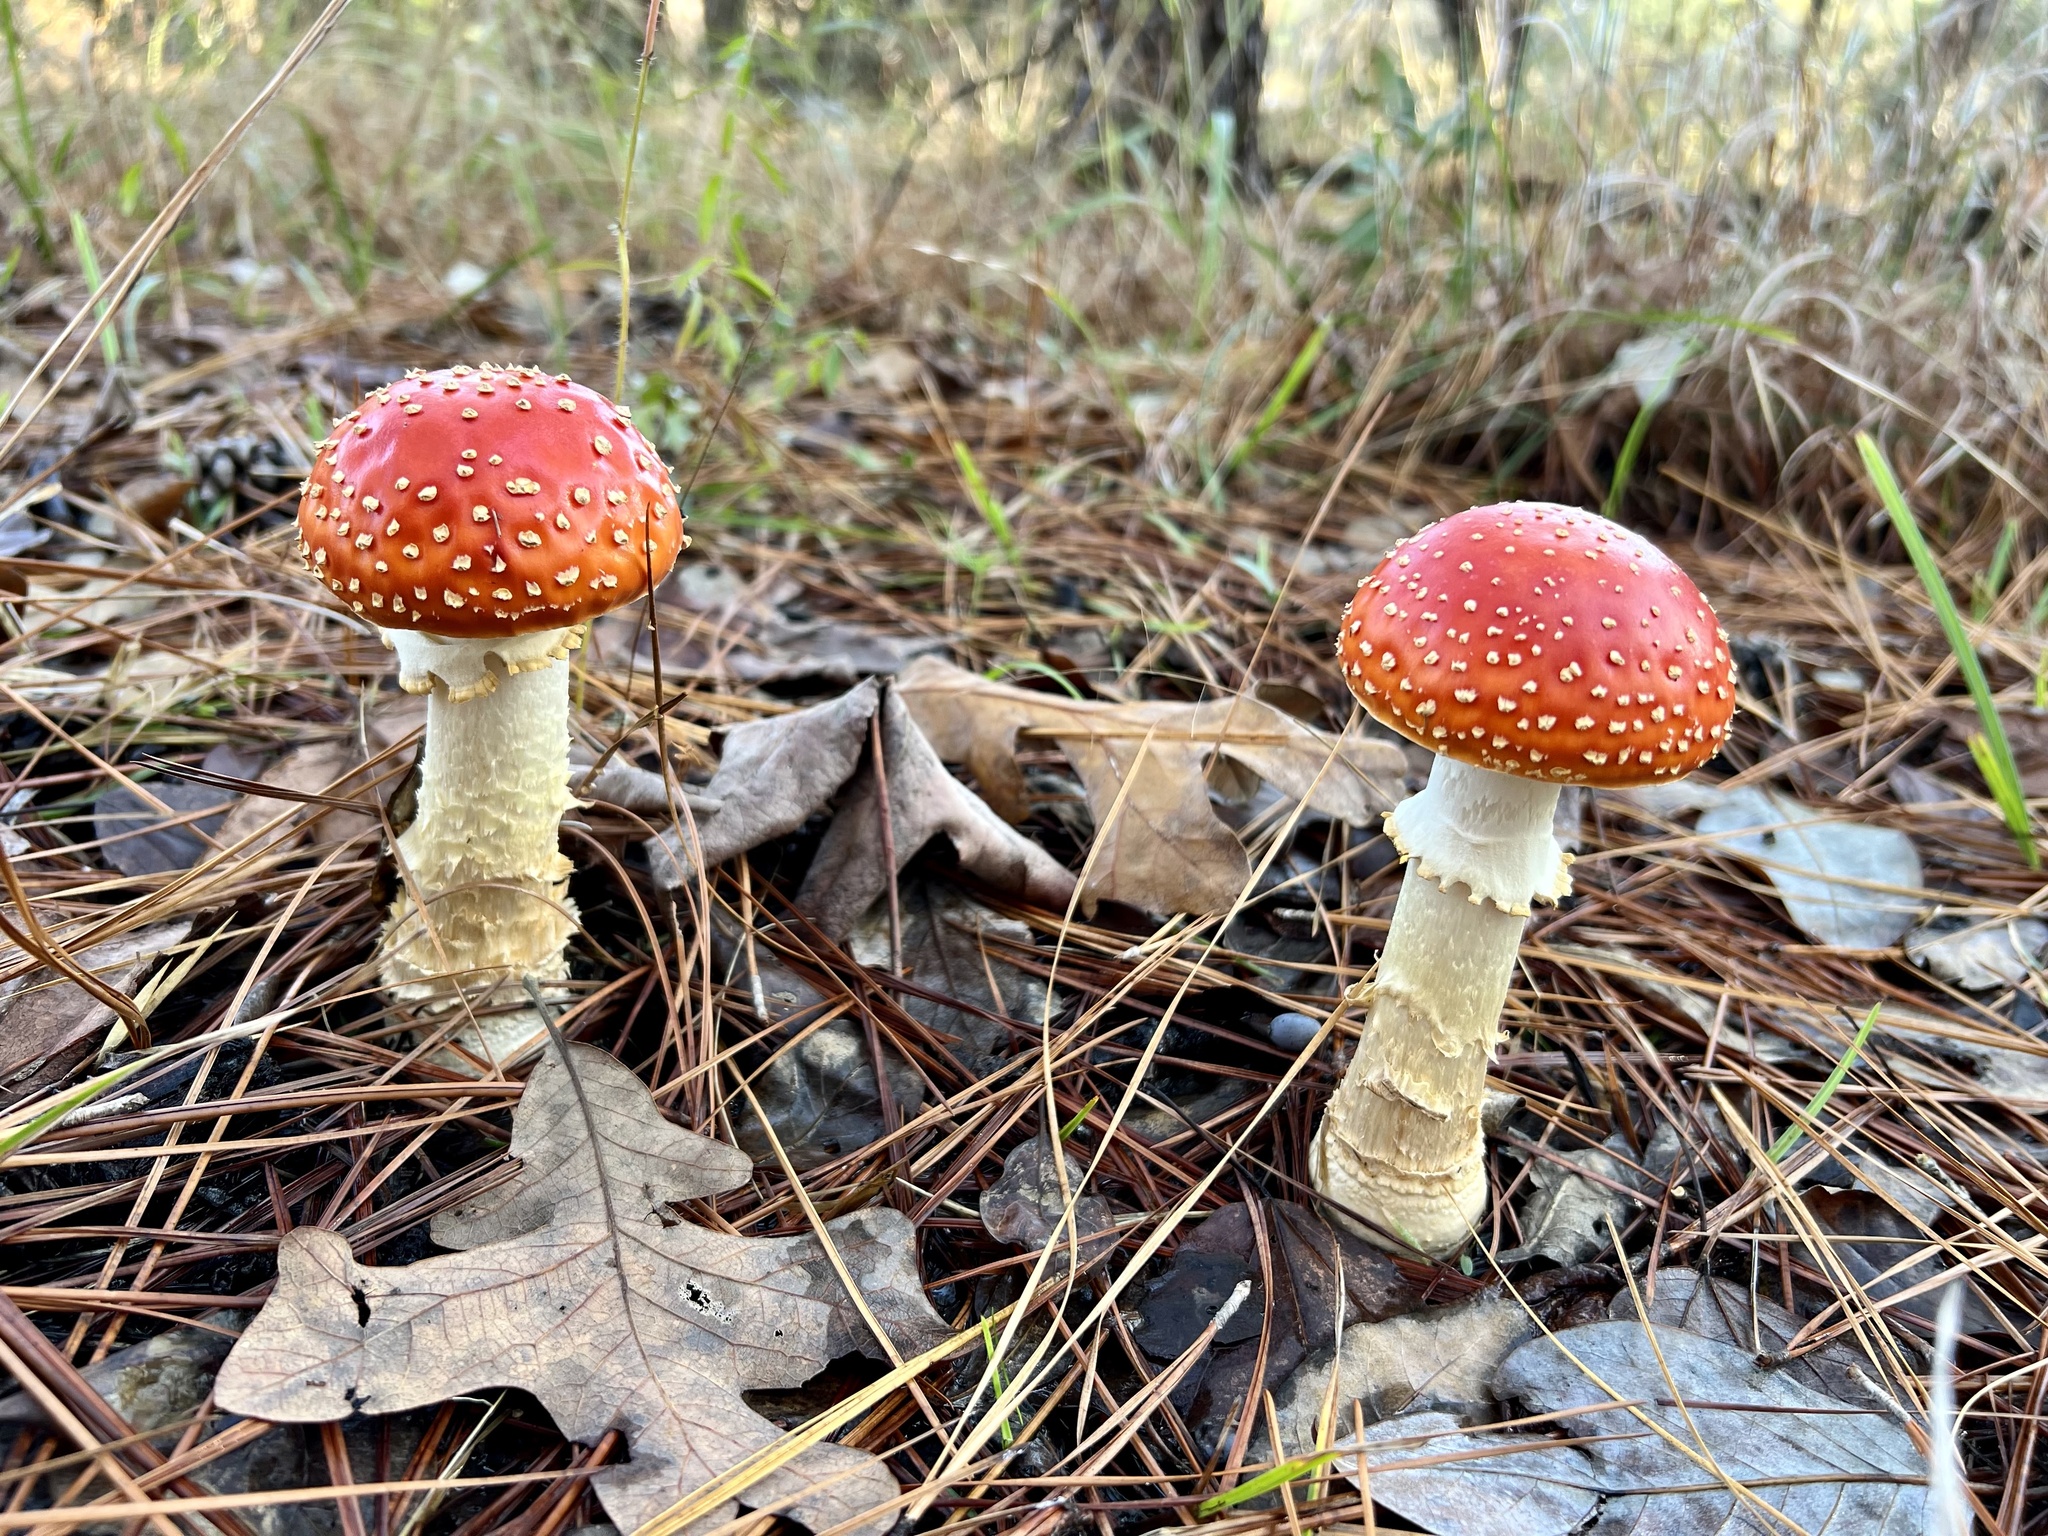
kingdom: Fungi
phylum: Basidiomycota
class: Agaricomycetes
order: Agaricales
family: Amanitaceae
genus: Amanita
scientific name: Amanita persicina
